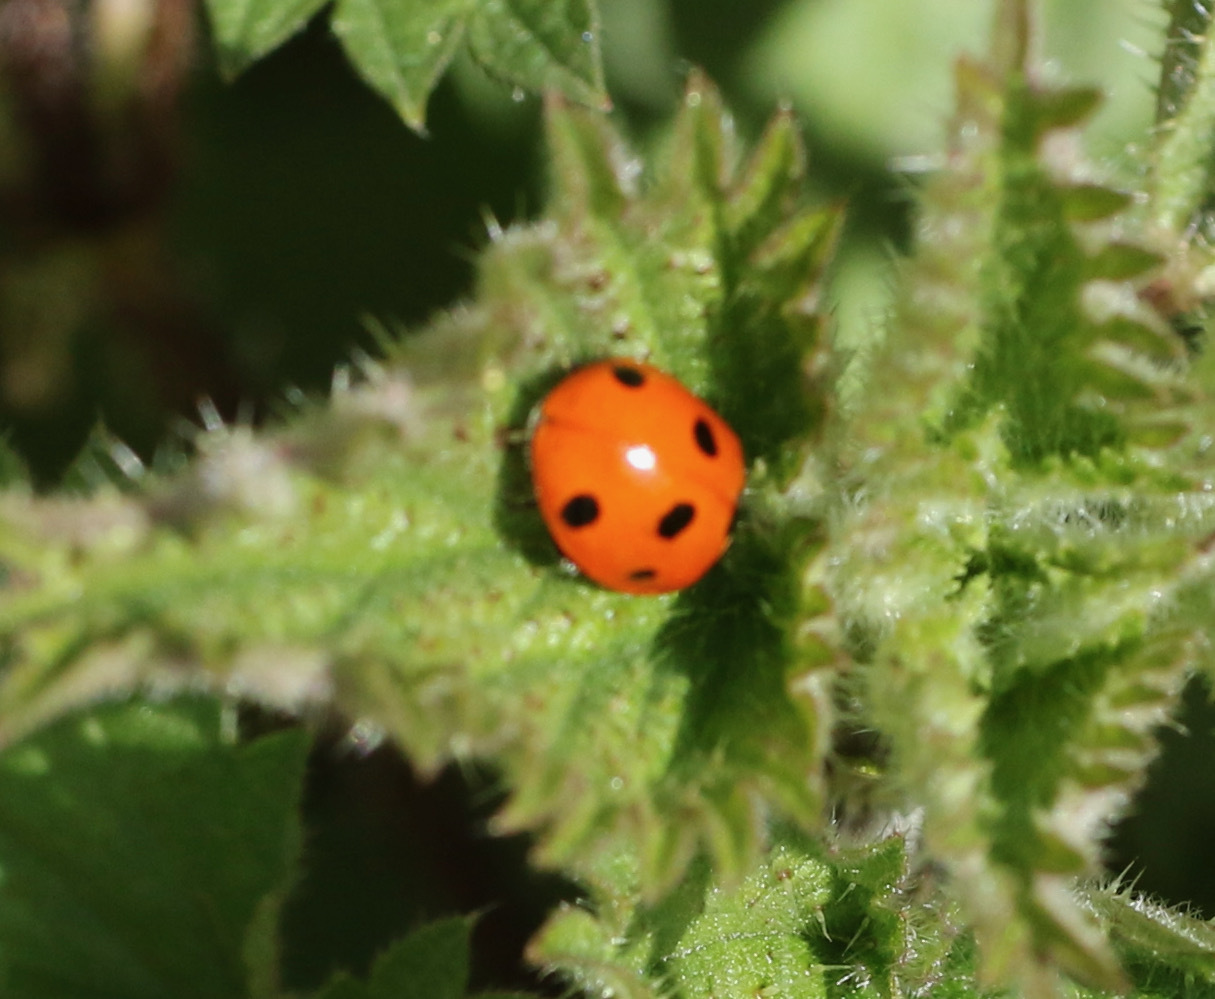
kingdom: Animalia
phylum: Arthropoda
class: Insecta
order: Coleoptera
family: Coccinellidae
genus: Coccinella
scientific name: Coccinella septempunctata
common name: Sevenspotted lady beetle
